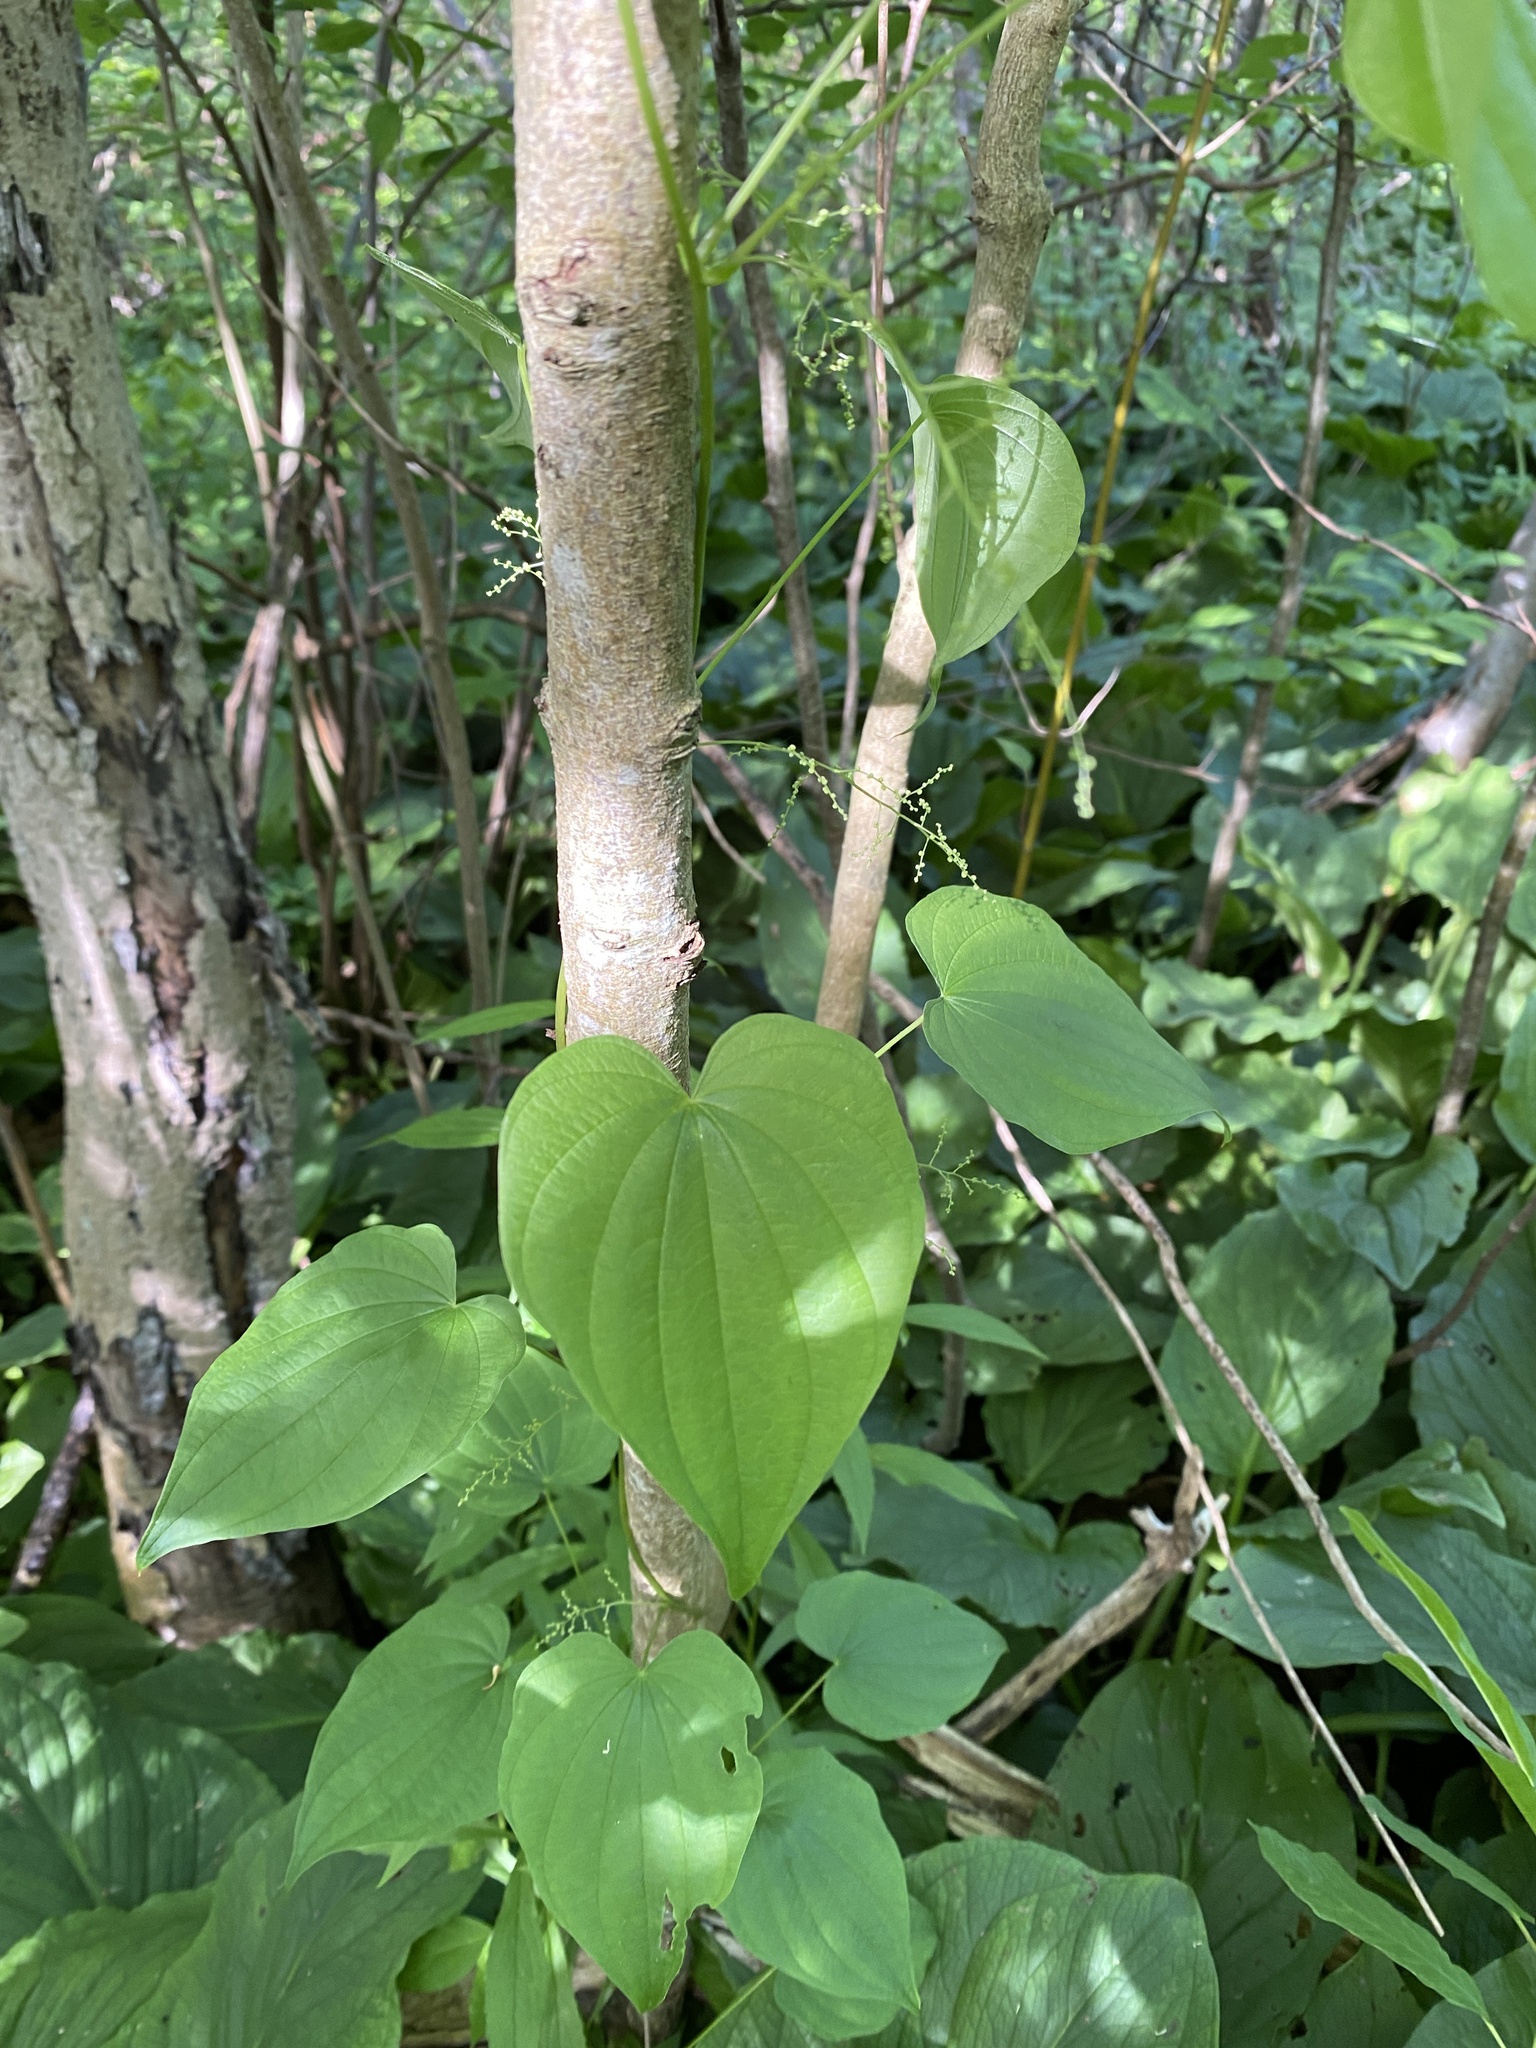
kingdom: Plantae
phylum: Tracheophyta
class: Liliopsida
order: Dioscoreales
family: Dioscoreaceae
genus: Dioscorea
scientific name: Dioscorea villosa
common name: Wild yam
